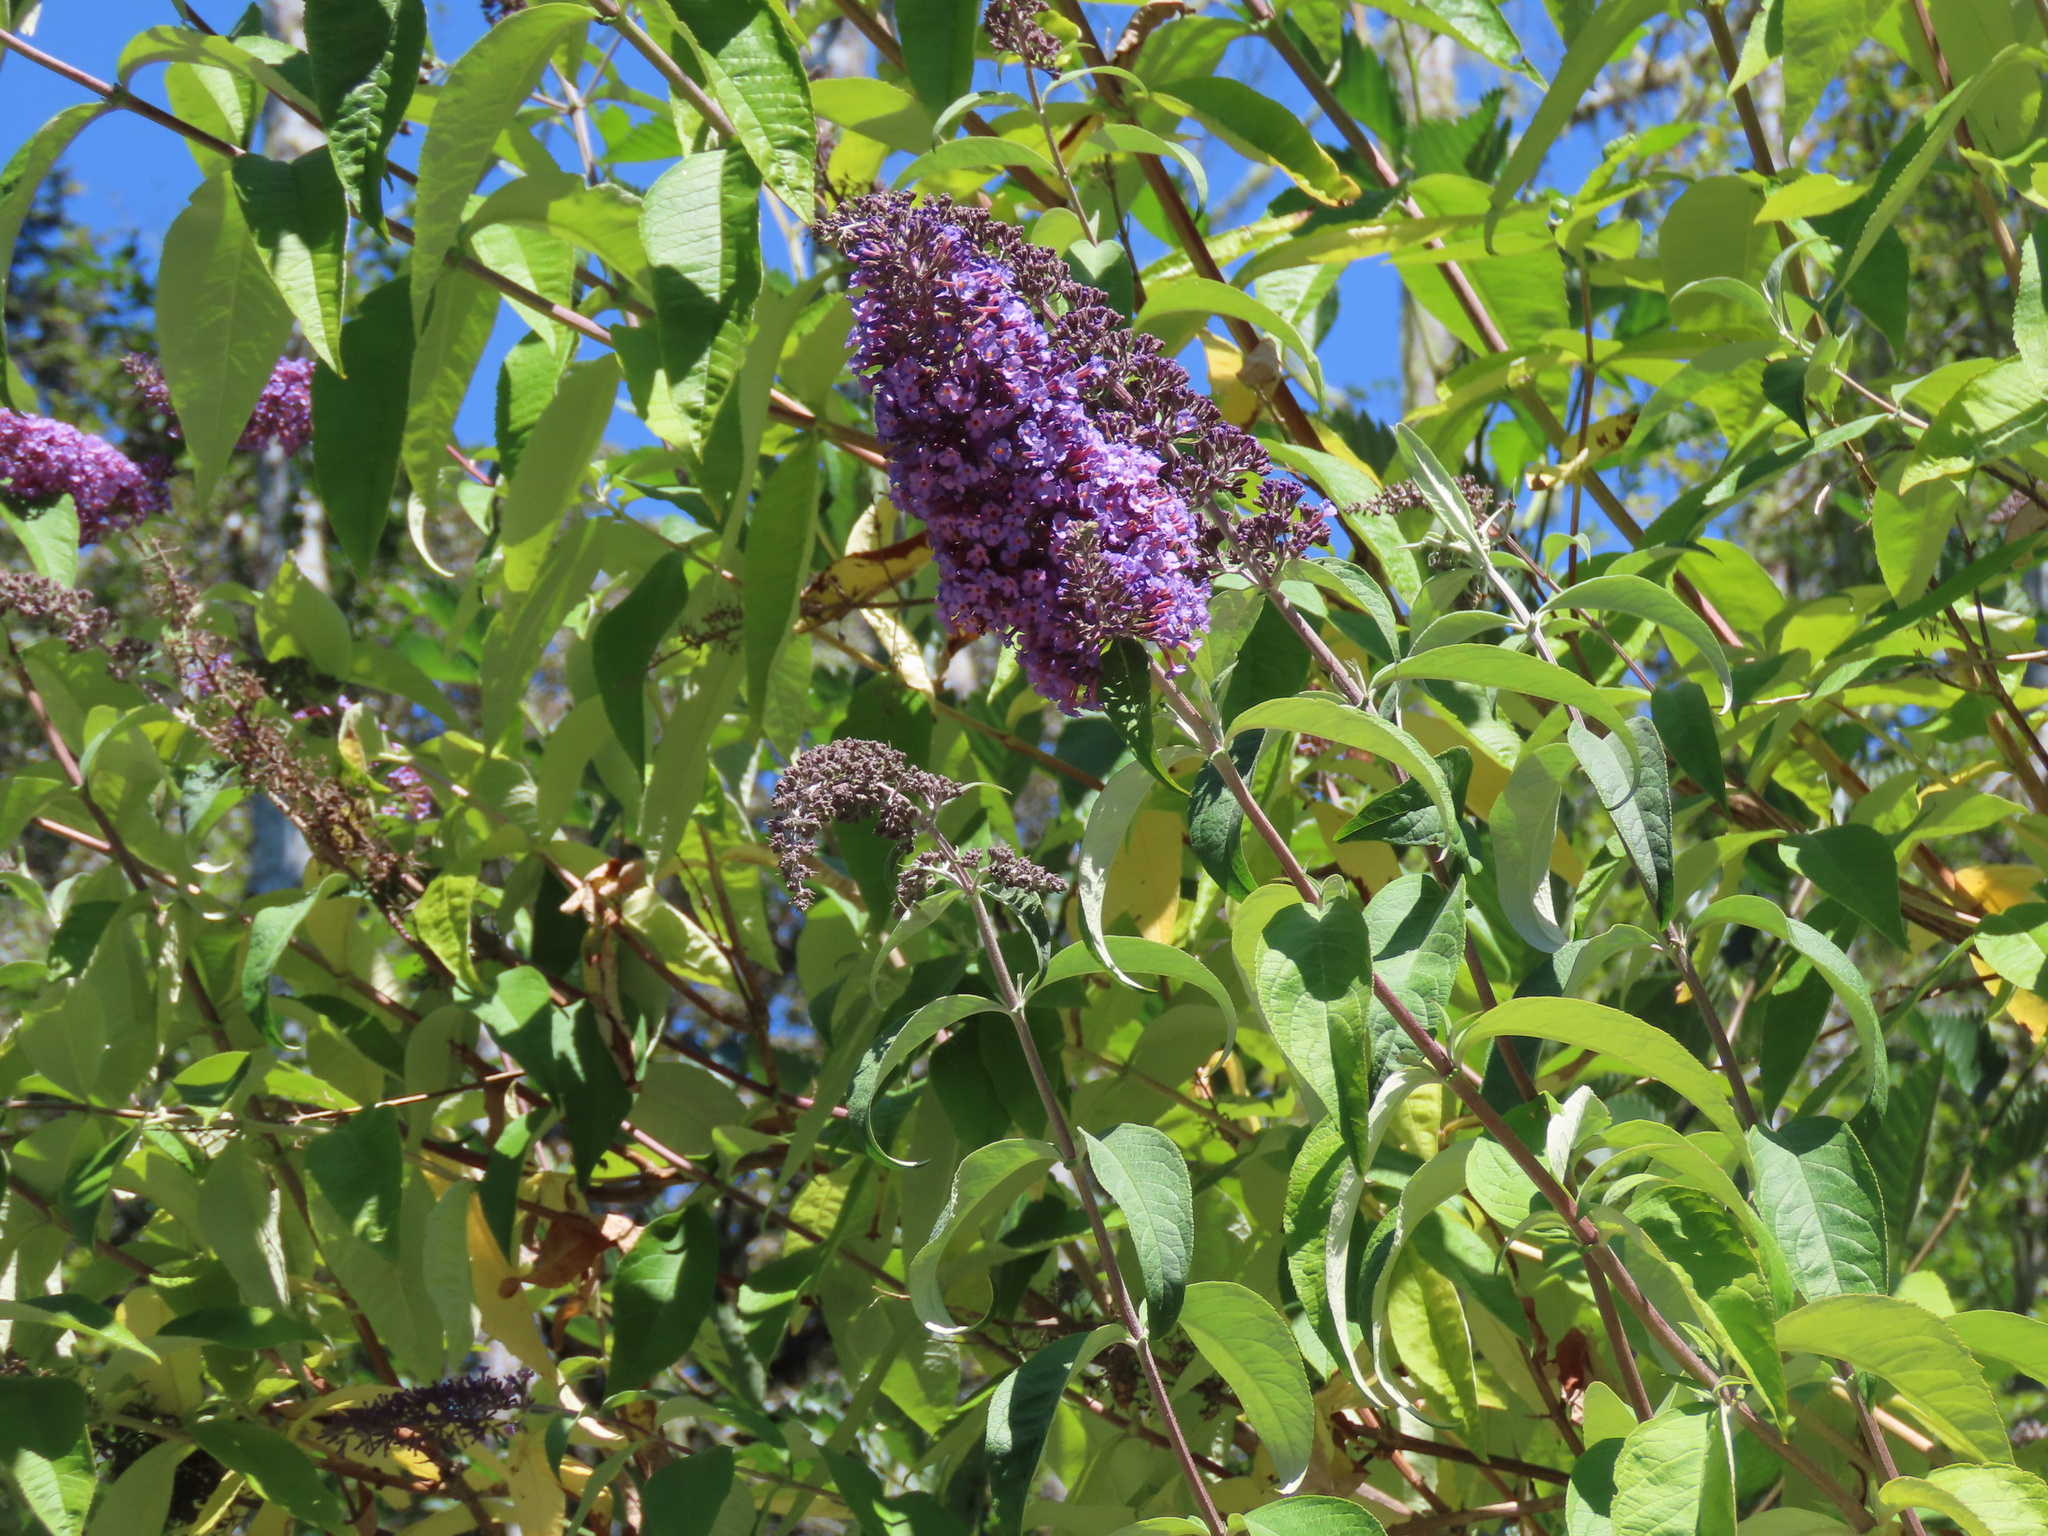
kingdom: Plantae
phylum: Tracheophyta
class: Magnoliopsida
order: Lamiales
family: Scrophulariaceae
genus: Buddleja
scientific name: Buddleja davidii
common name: Butterfly-bush
